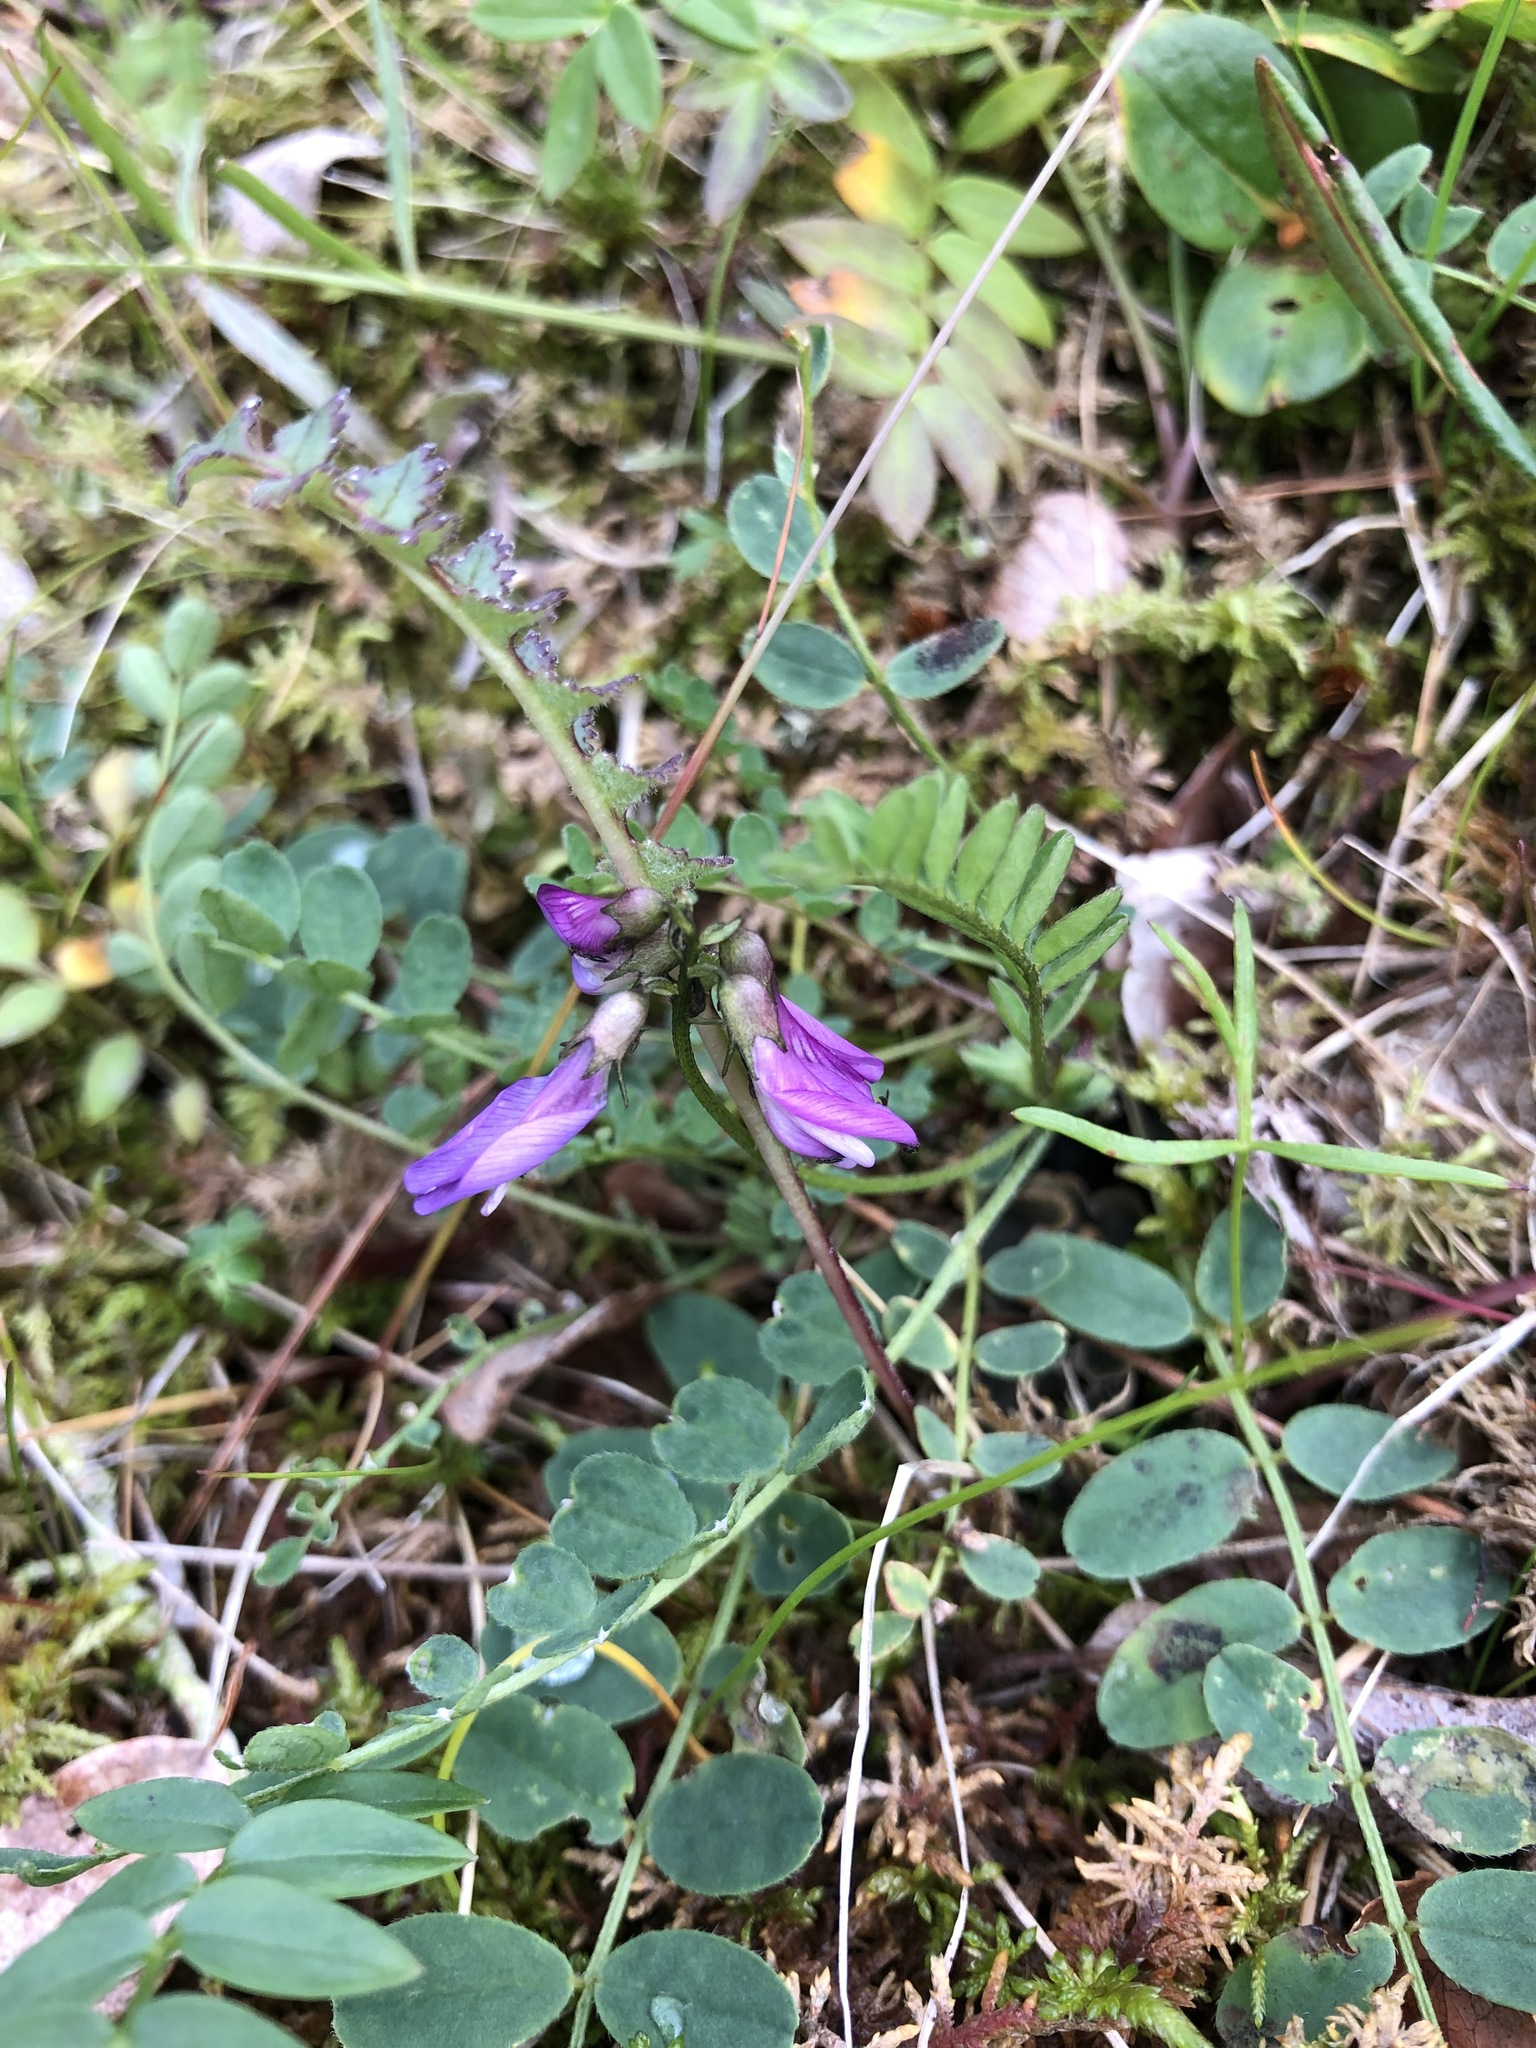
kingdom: Plantae
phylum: Tracheophyta
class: Magnoliopsida
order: Fabales
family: Fabaceae
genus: Astragalus
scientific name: Astragalus alpinus
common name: Alpine milk-vetch
